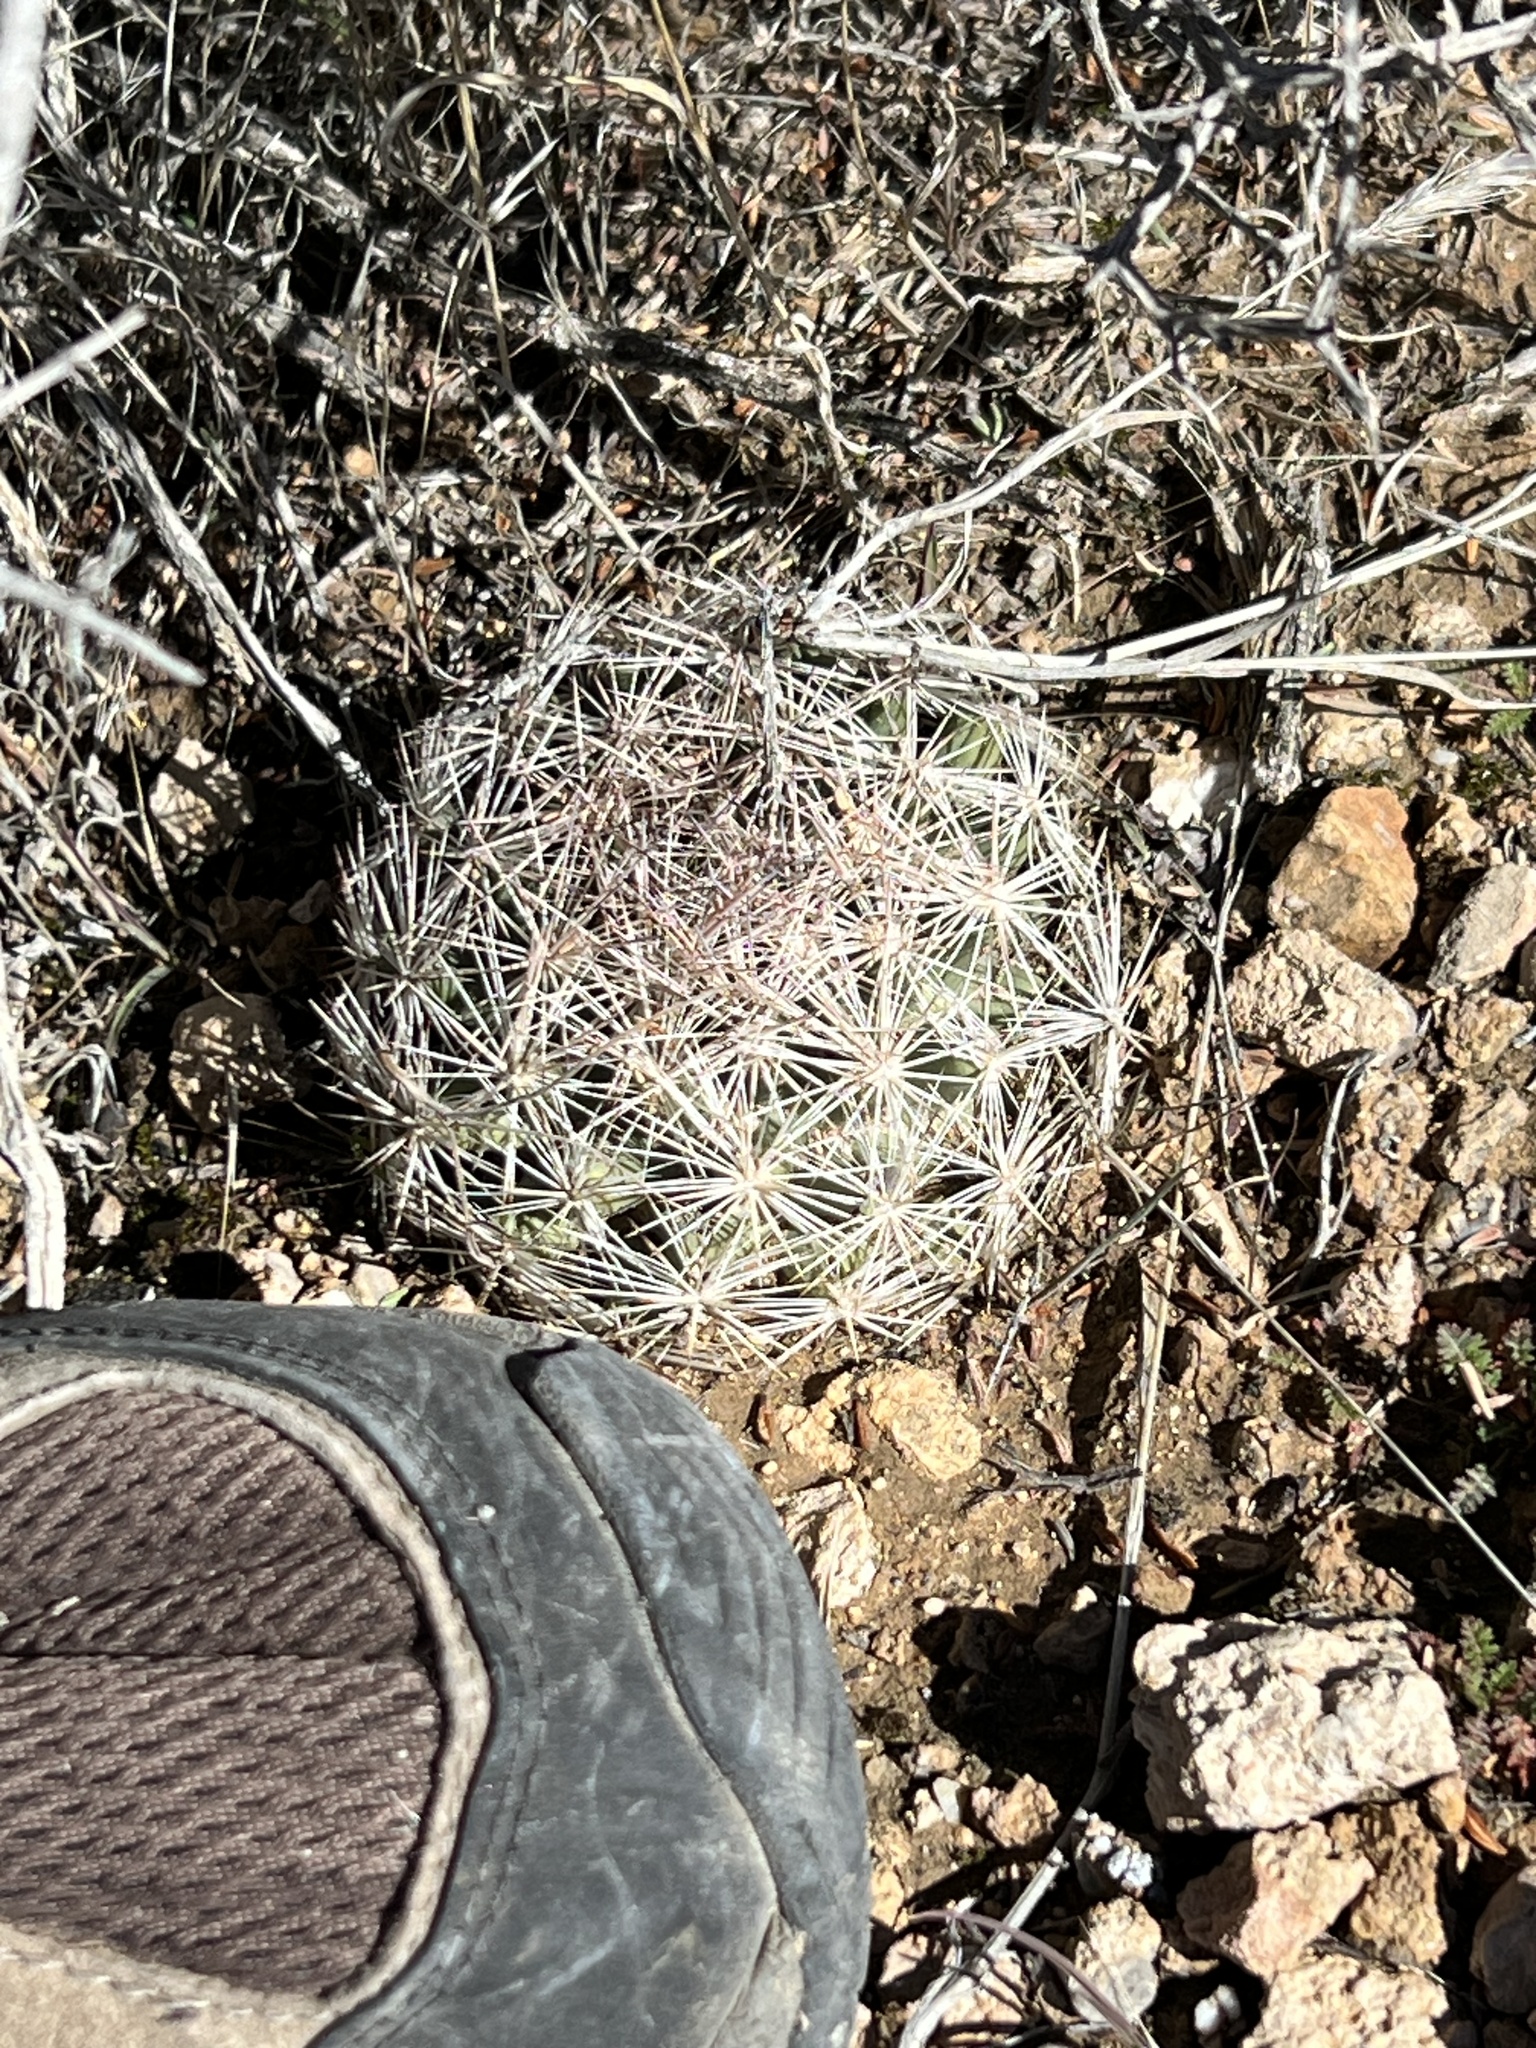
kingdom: Plantae
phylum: Tracheophyta
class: Magnoliopsida
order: Caryophyllales
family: Cactaceae
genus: Pelecyphora
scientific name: Pelecyphora dasyacantha
